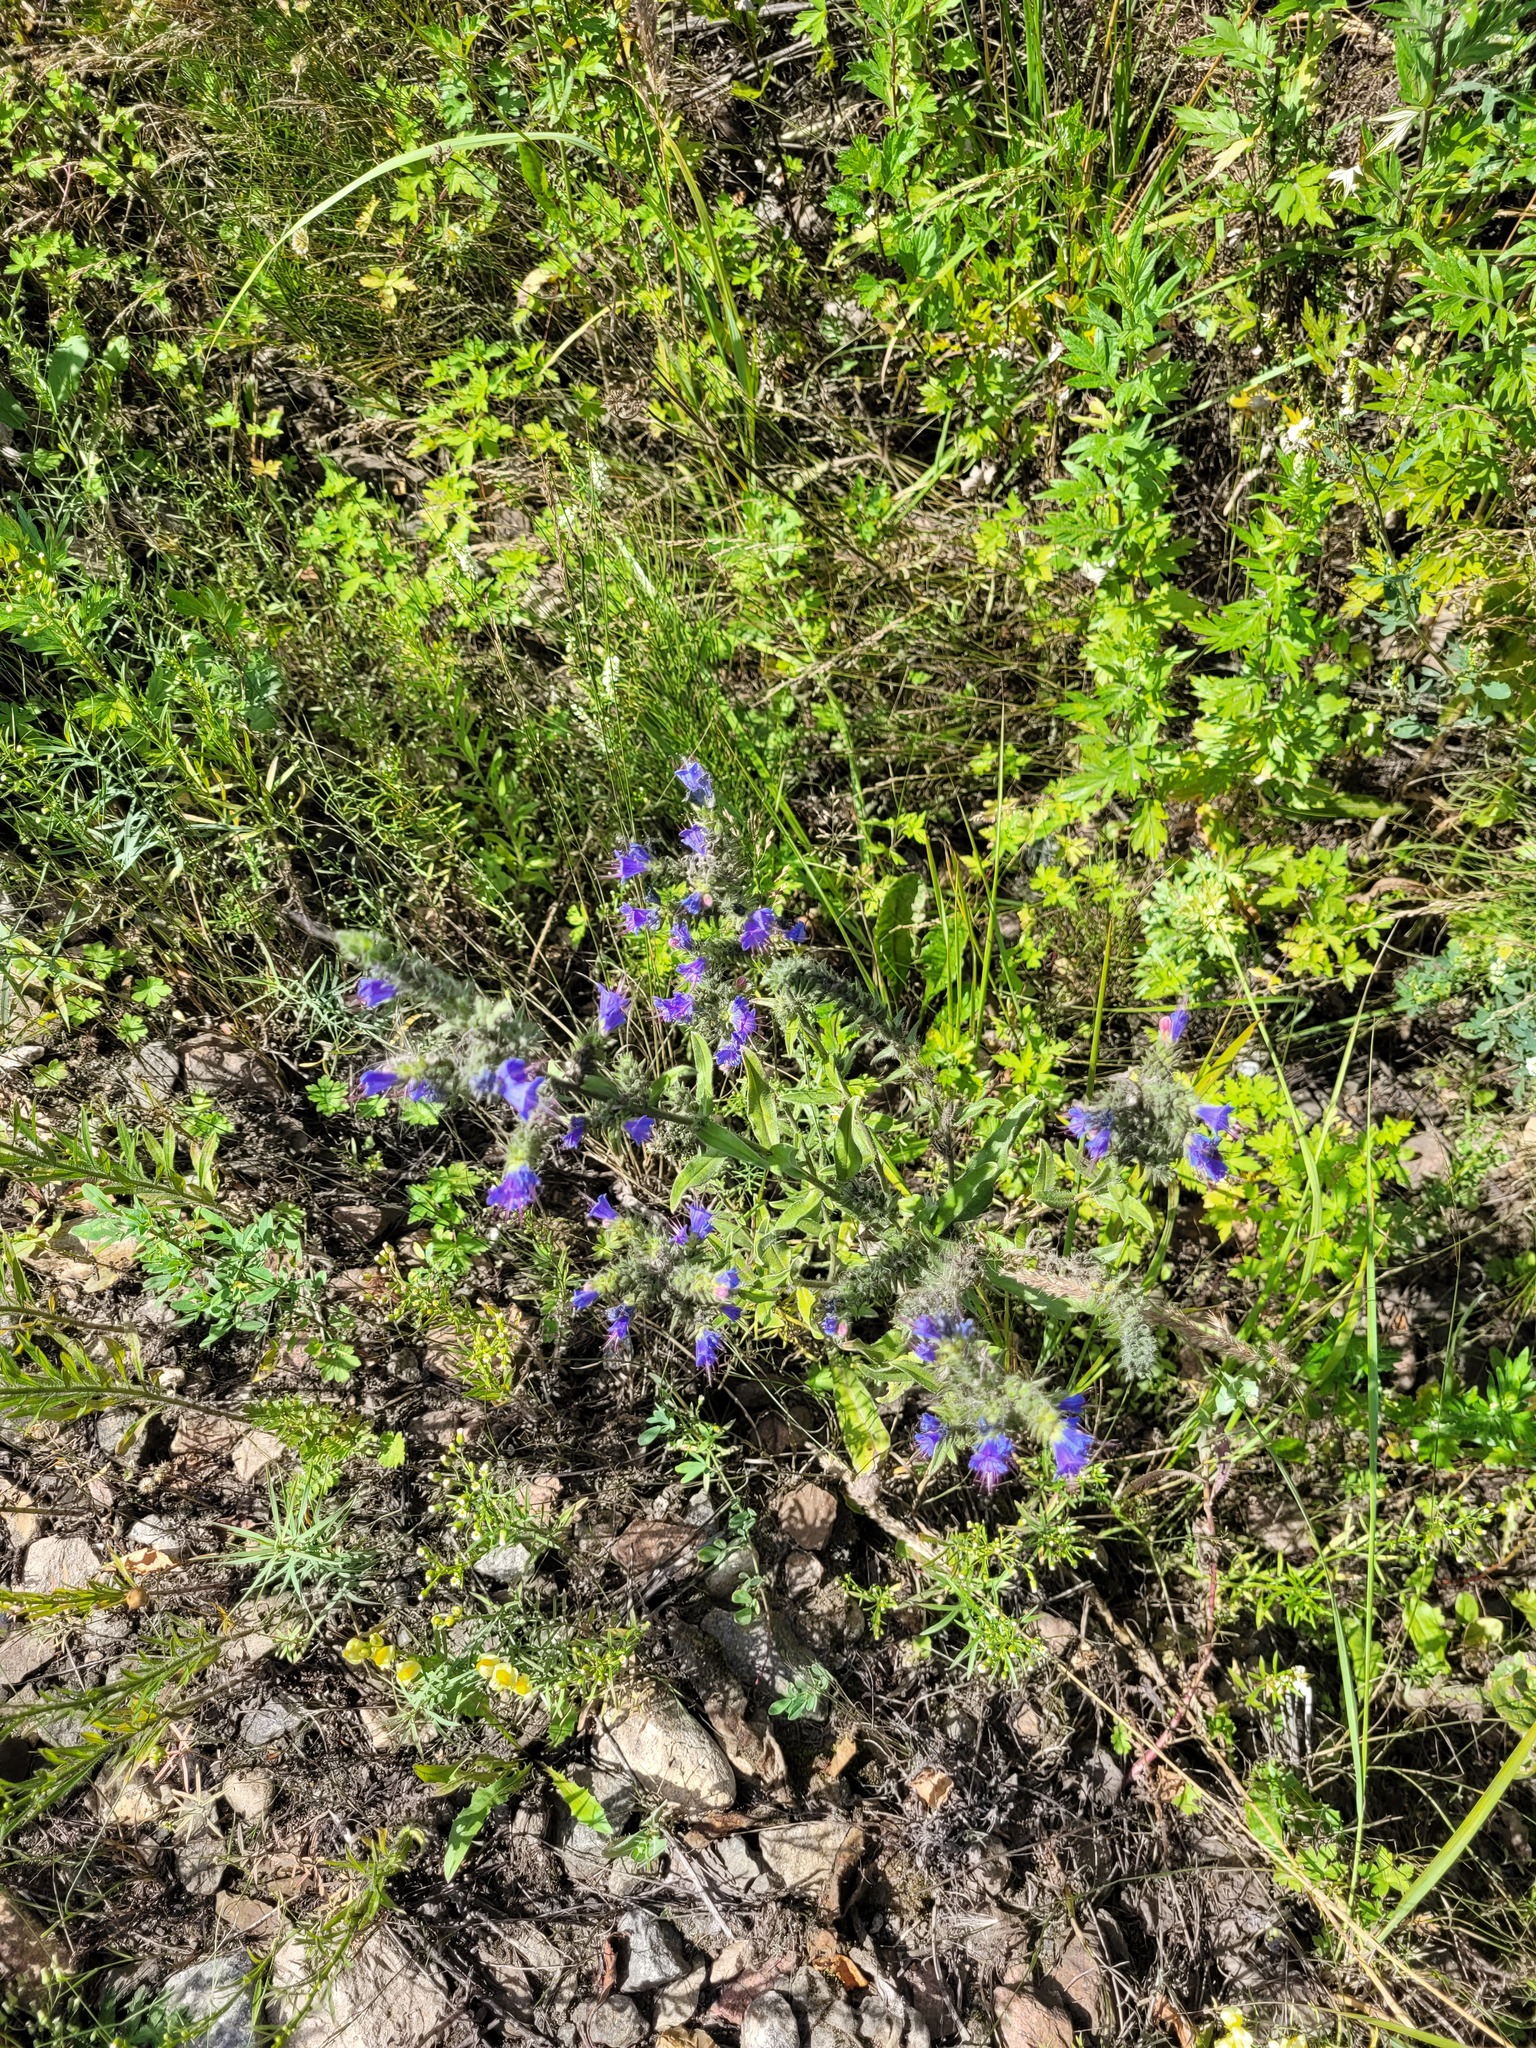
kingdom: Plantae
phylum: Tracheophyta
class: Magnoliopsida
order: Boraginales
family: Boraginaceae
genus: Echium
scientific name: Echium vulgare
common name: Common viper's bugloss
